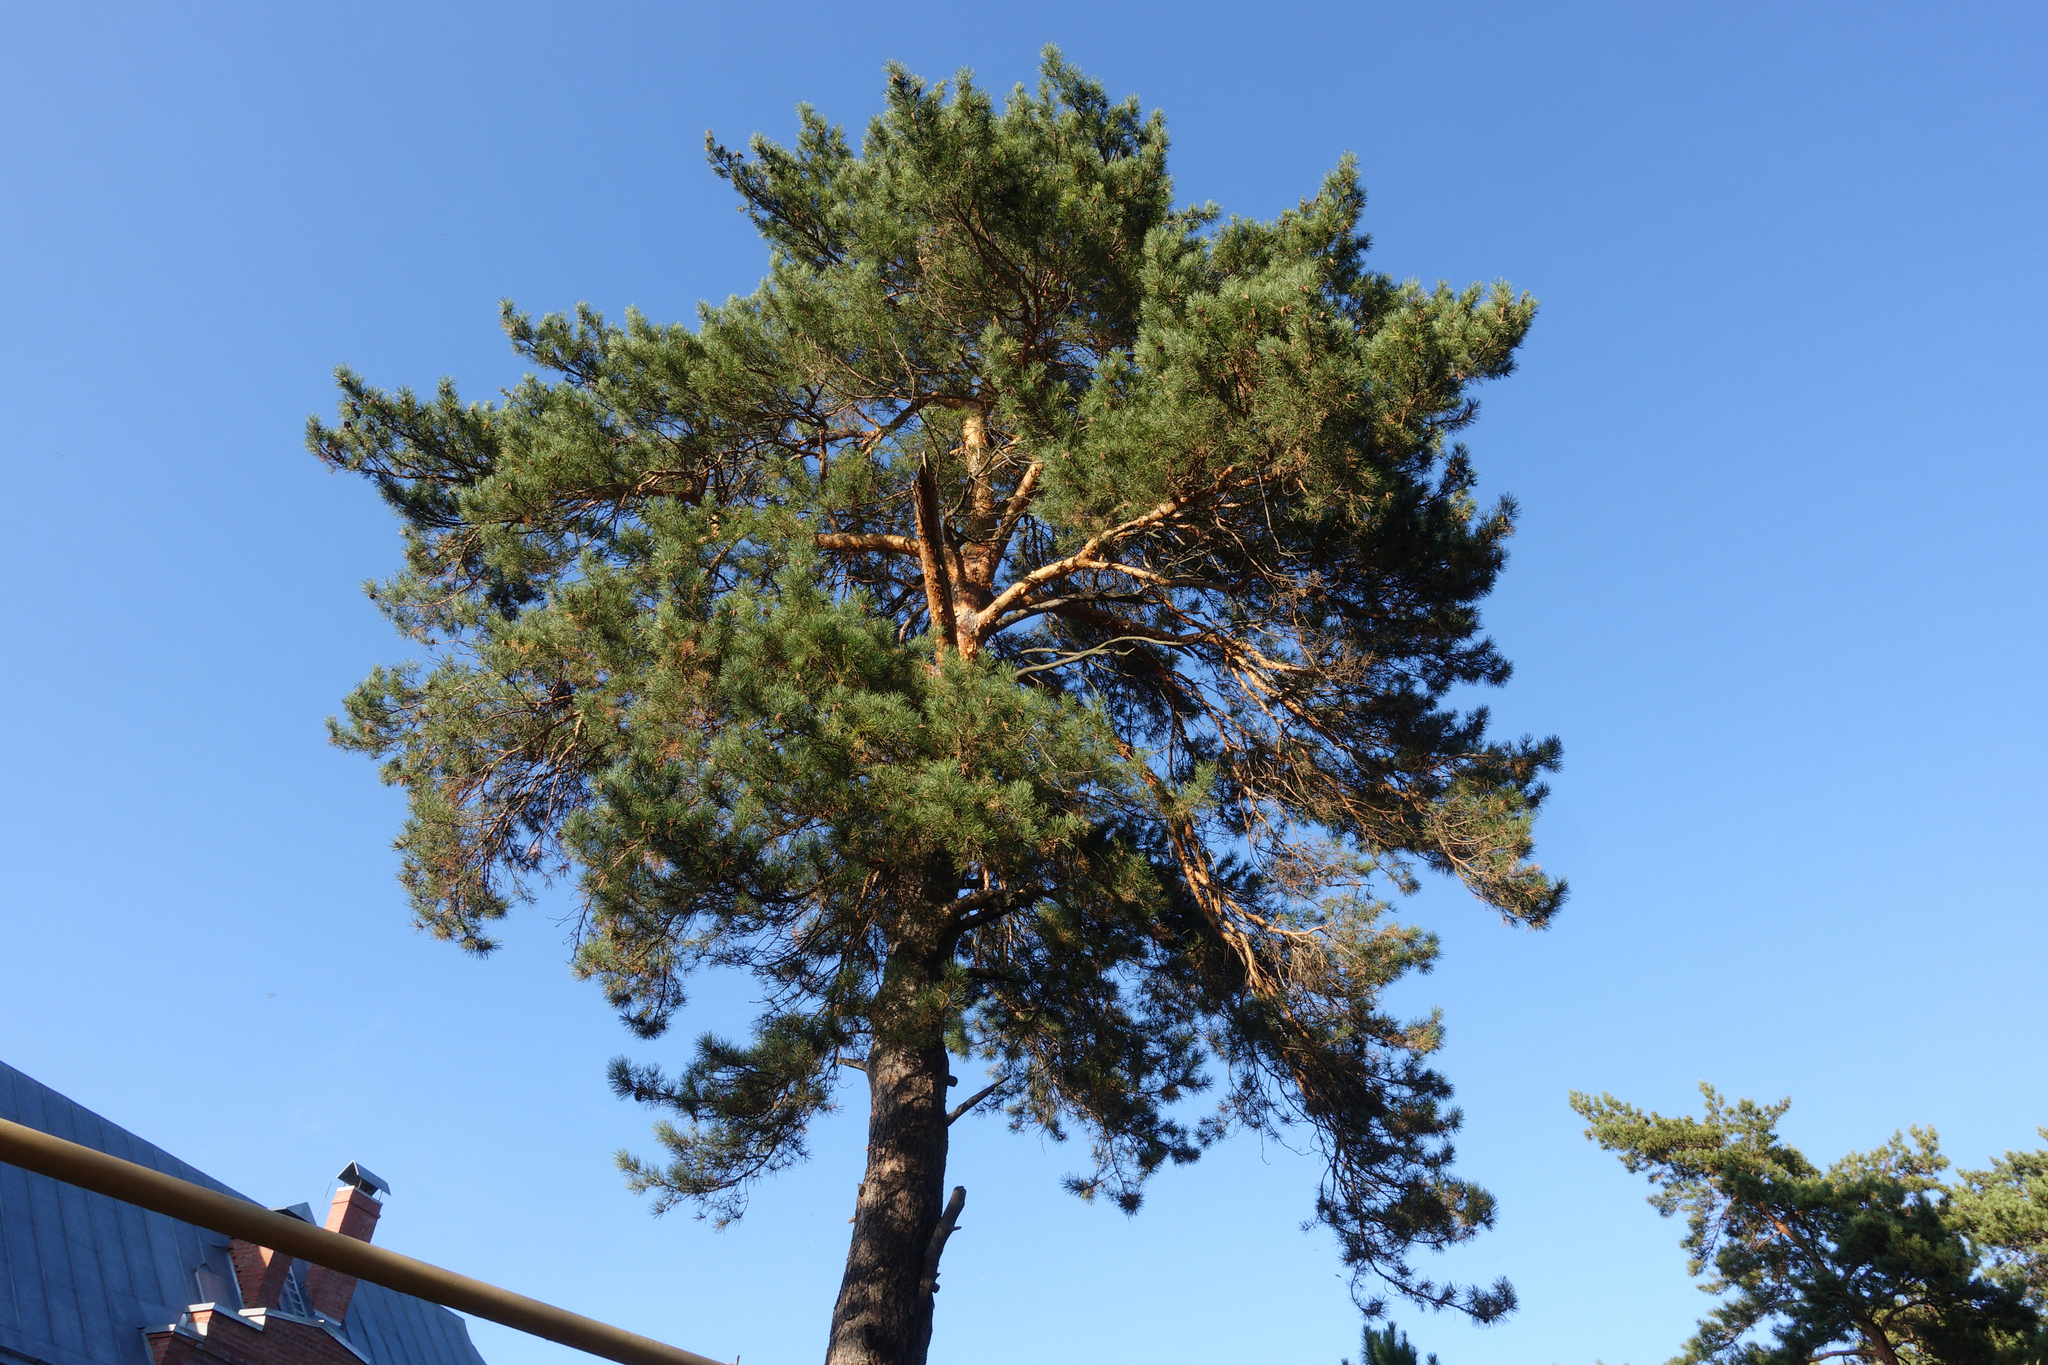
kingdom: Plantae
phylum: Tracheophyta
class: Pinopsida
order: Pinales
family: Pinaceae
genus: Pinus
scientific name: Pinus sylvestris
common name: Scots pine
